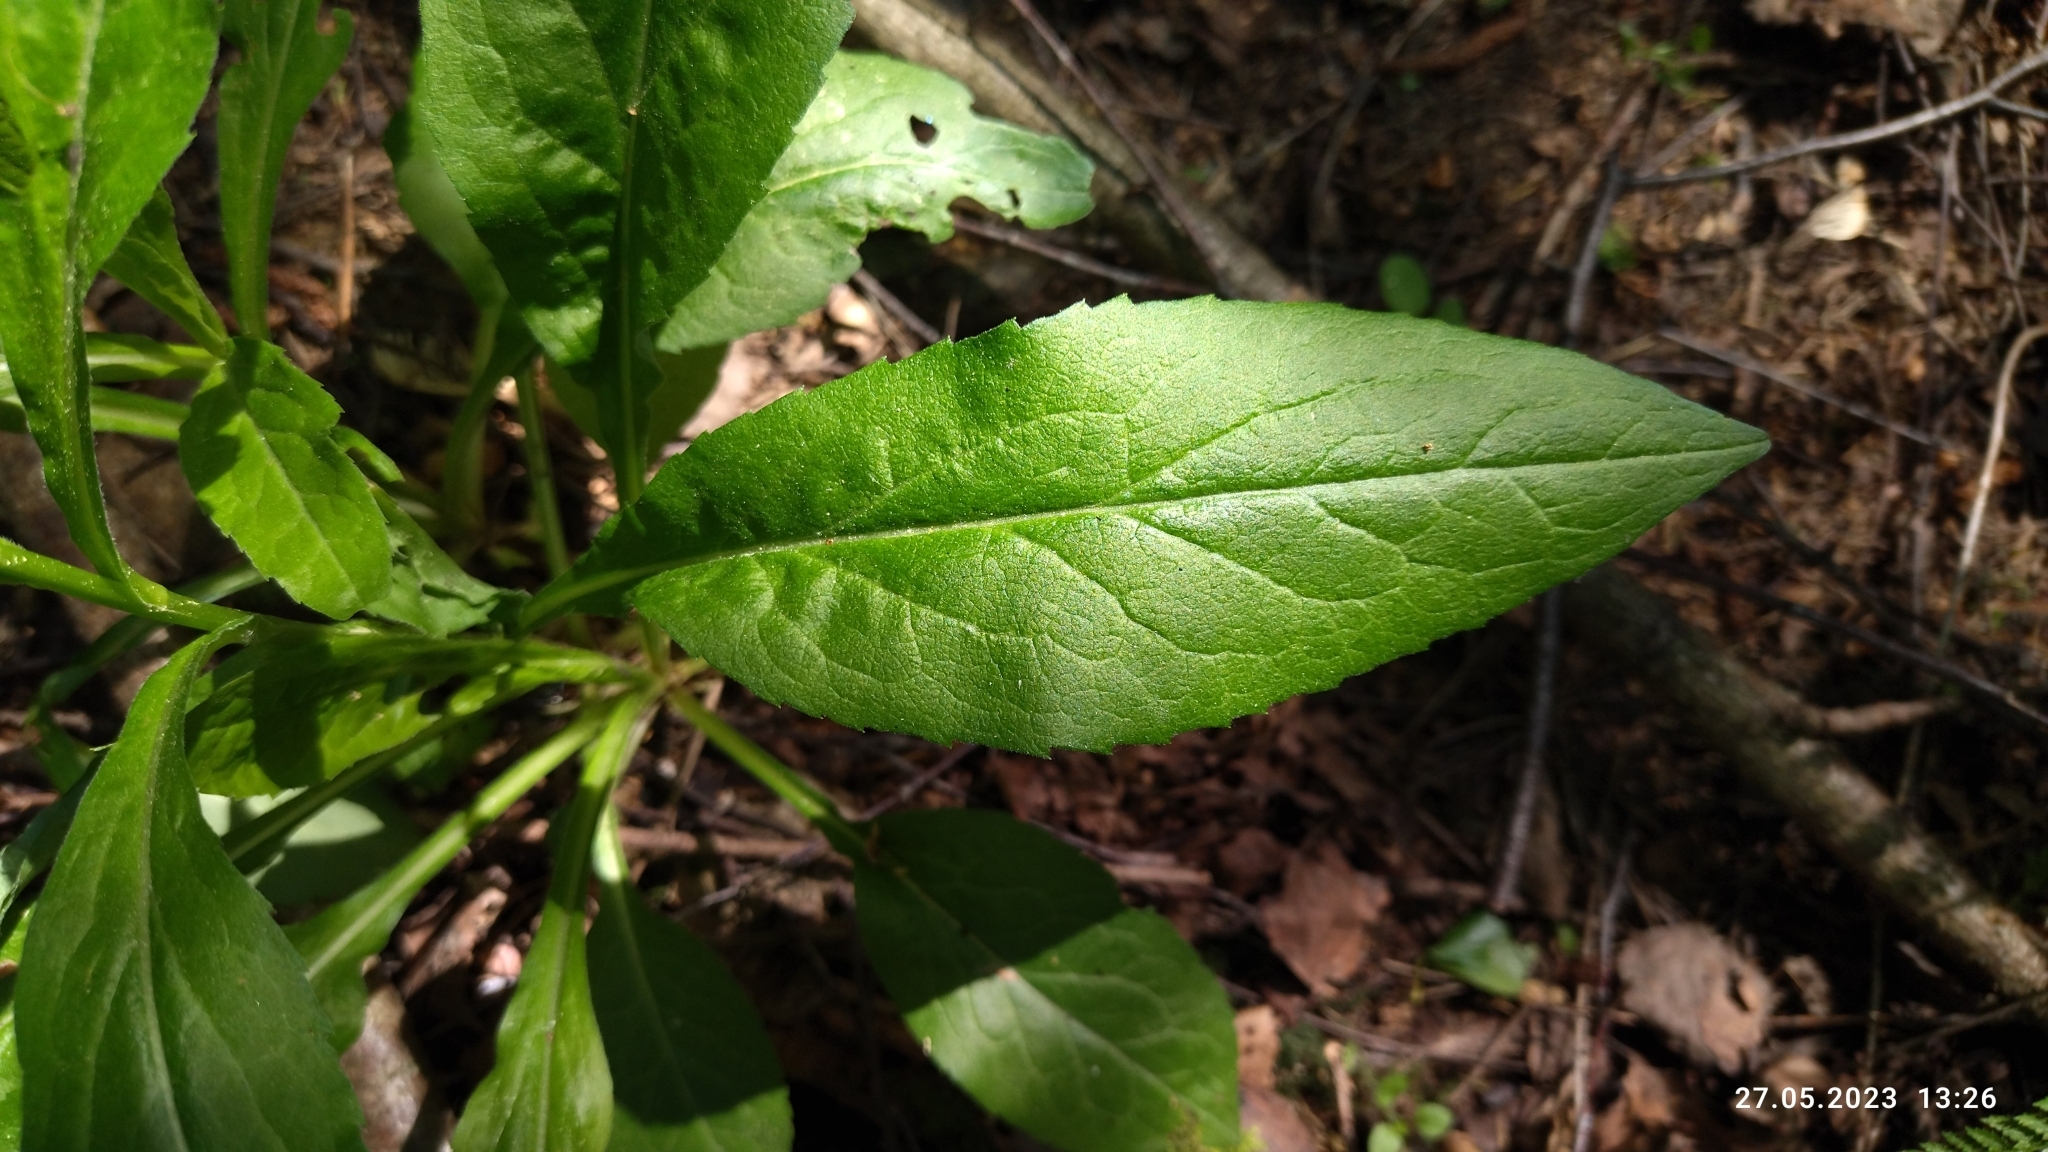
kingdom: Plantae
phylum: Tracheophyta
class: Magnoliopsida
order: Asterales
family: Asteraceae
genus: Solidago
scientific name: Solidago virgaurea
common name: Goldenrod
